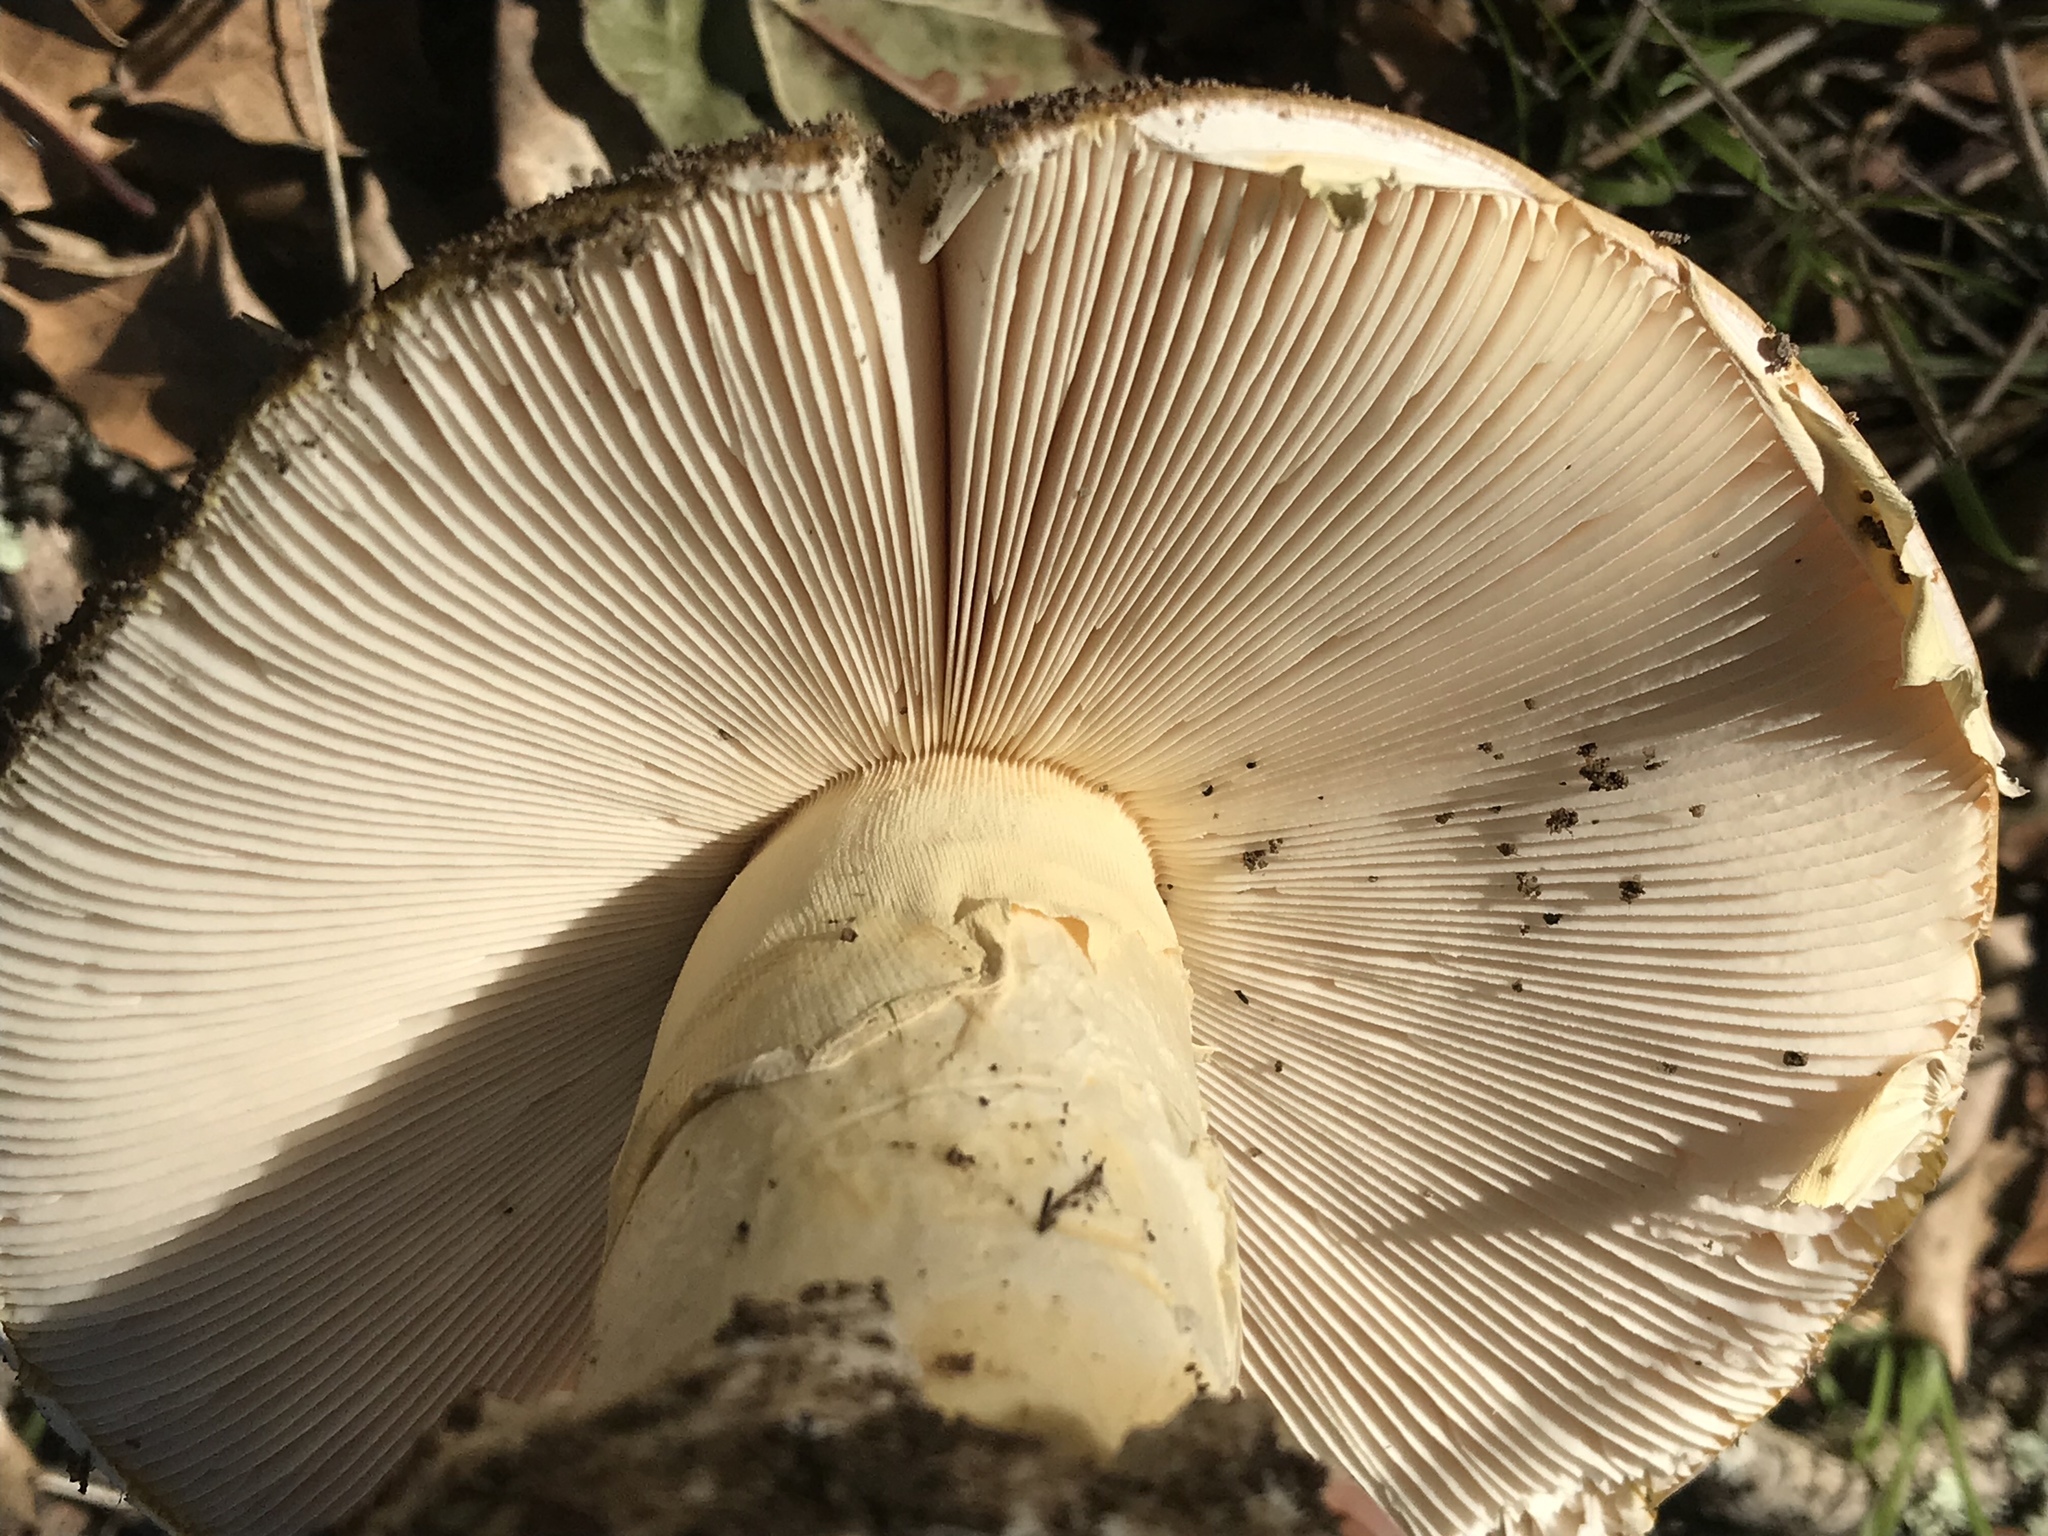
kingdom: Fungi
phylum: Basidiomycota
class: Agaricomycetes
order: Agaricales
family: Amanitaceae
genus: Amanita
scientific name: Amanita calyptroderma
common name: Coccora
